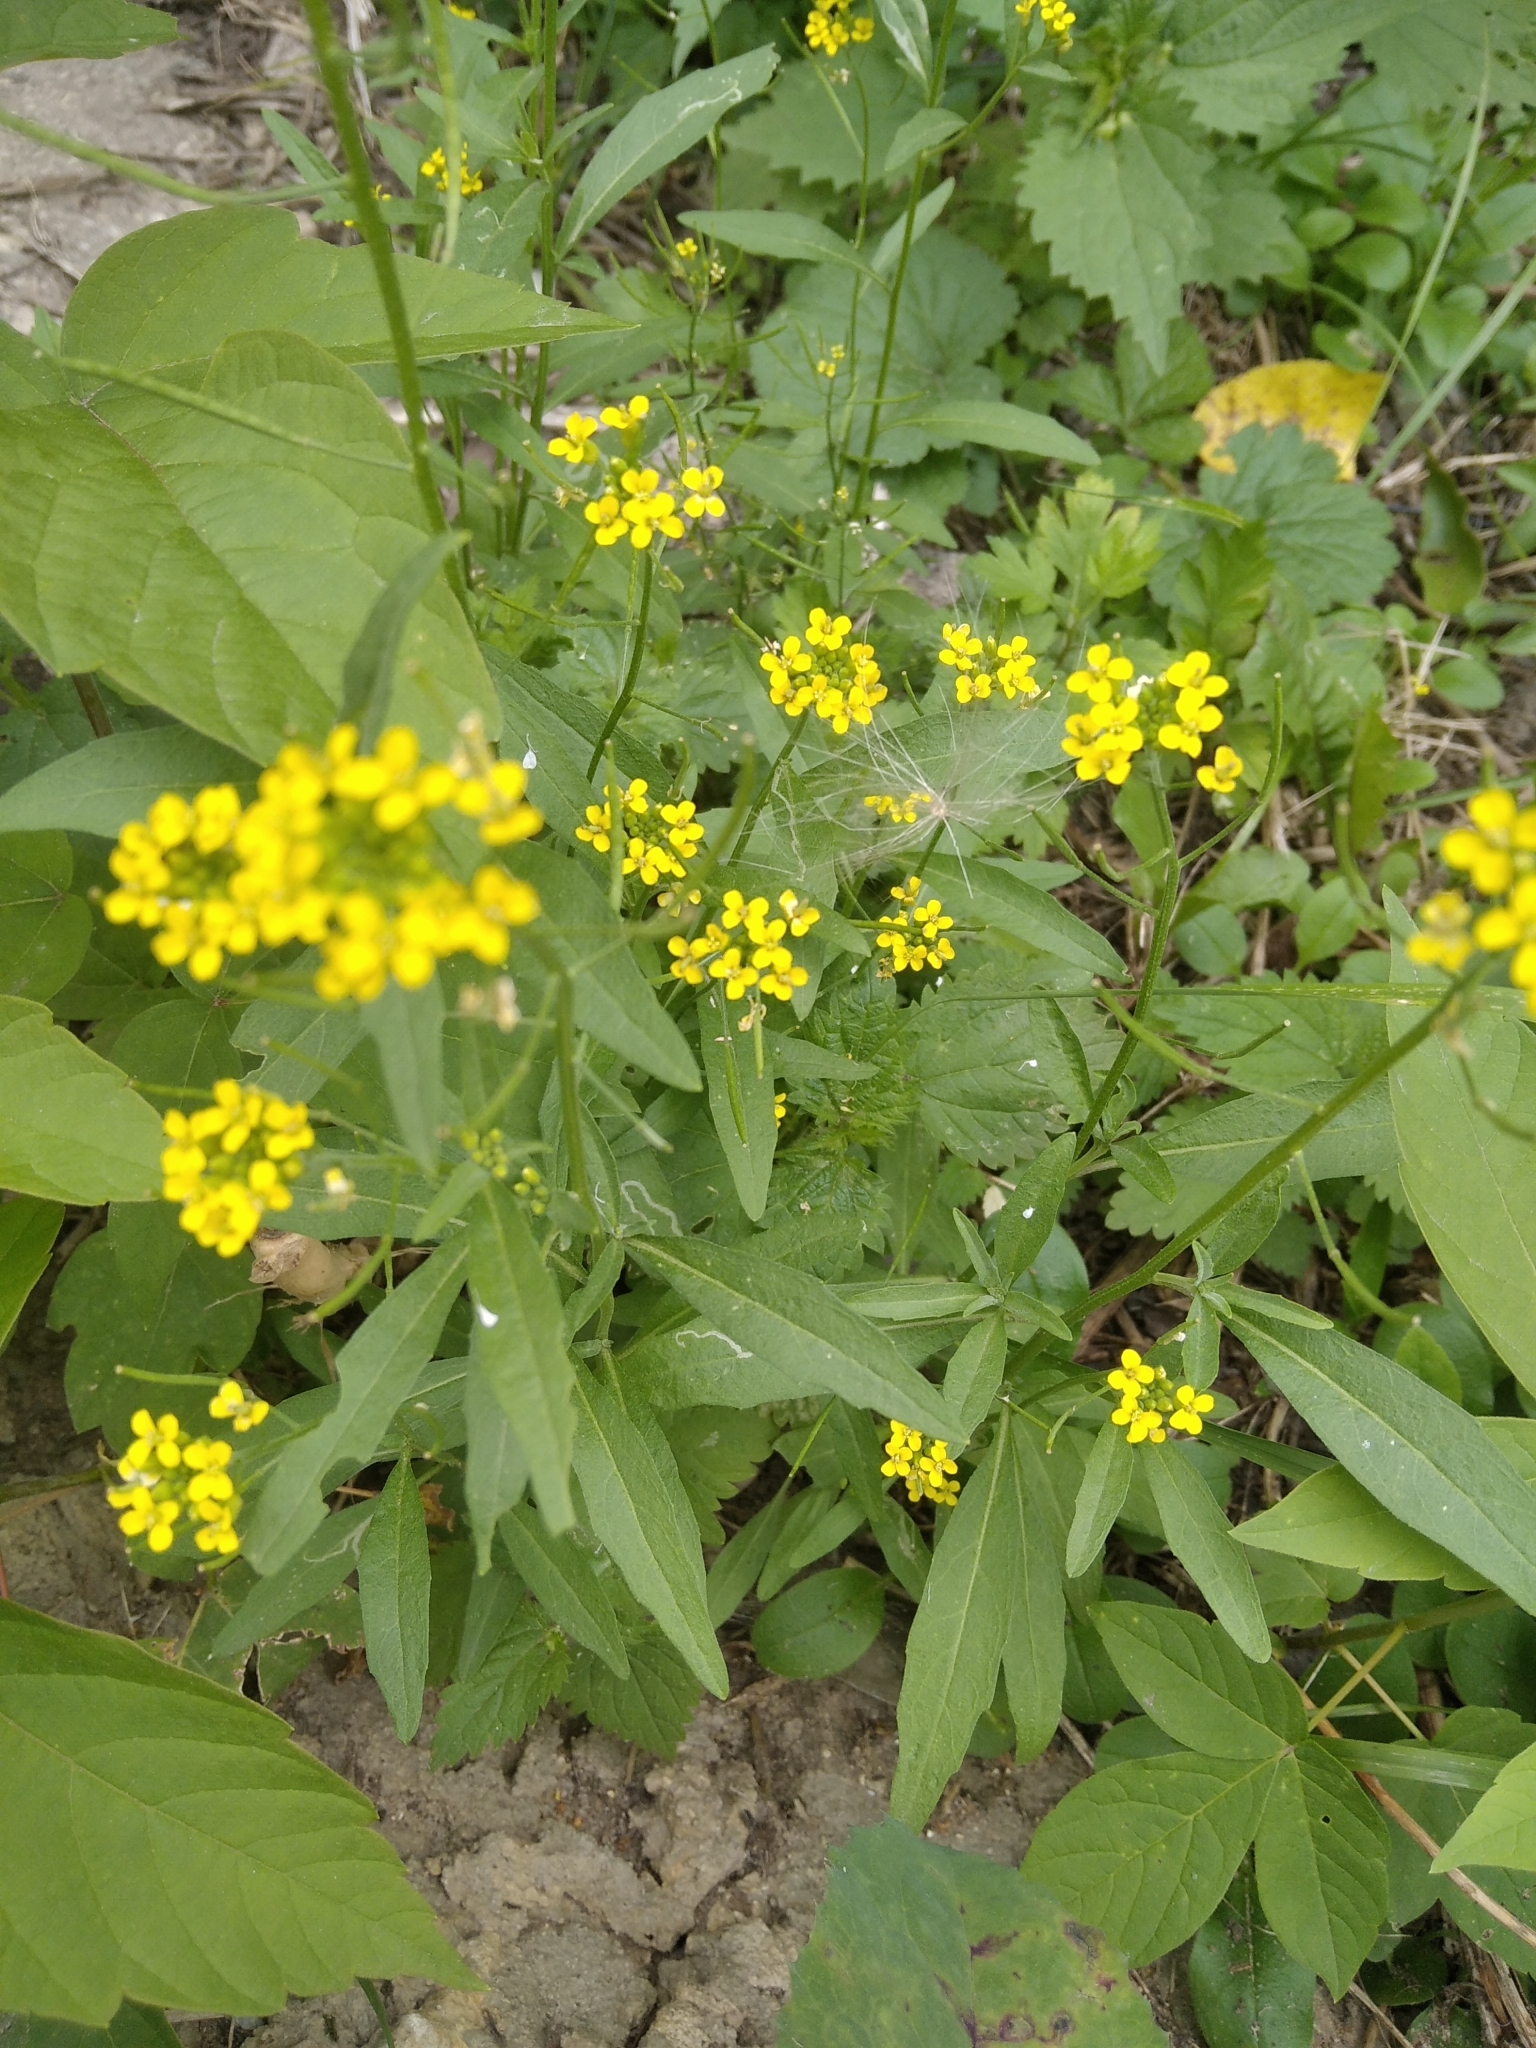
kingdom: Plantae
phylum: Tracheophyta
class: Magnoliopsida
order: Brassicales
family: Brassicaceae
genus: Erysimum
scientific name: Erysimum cheiranthoides
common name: Treacle mustard
